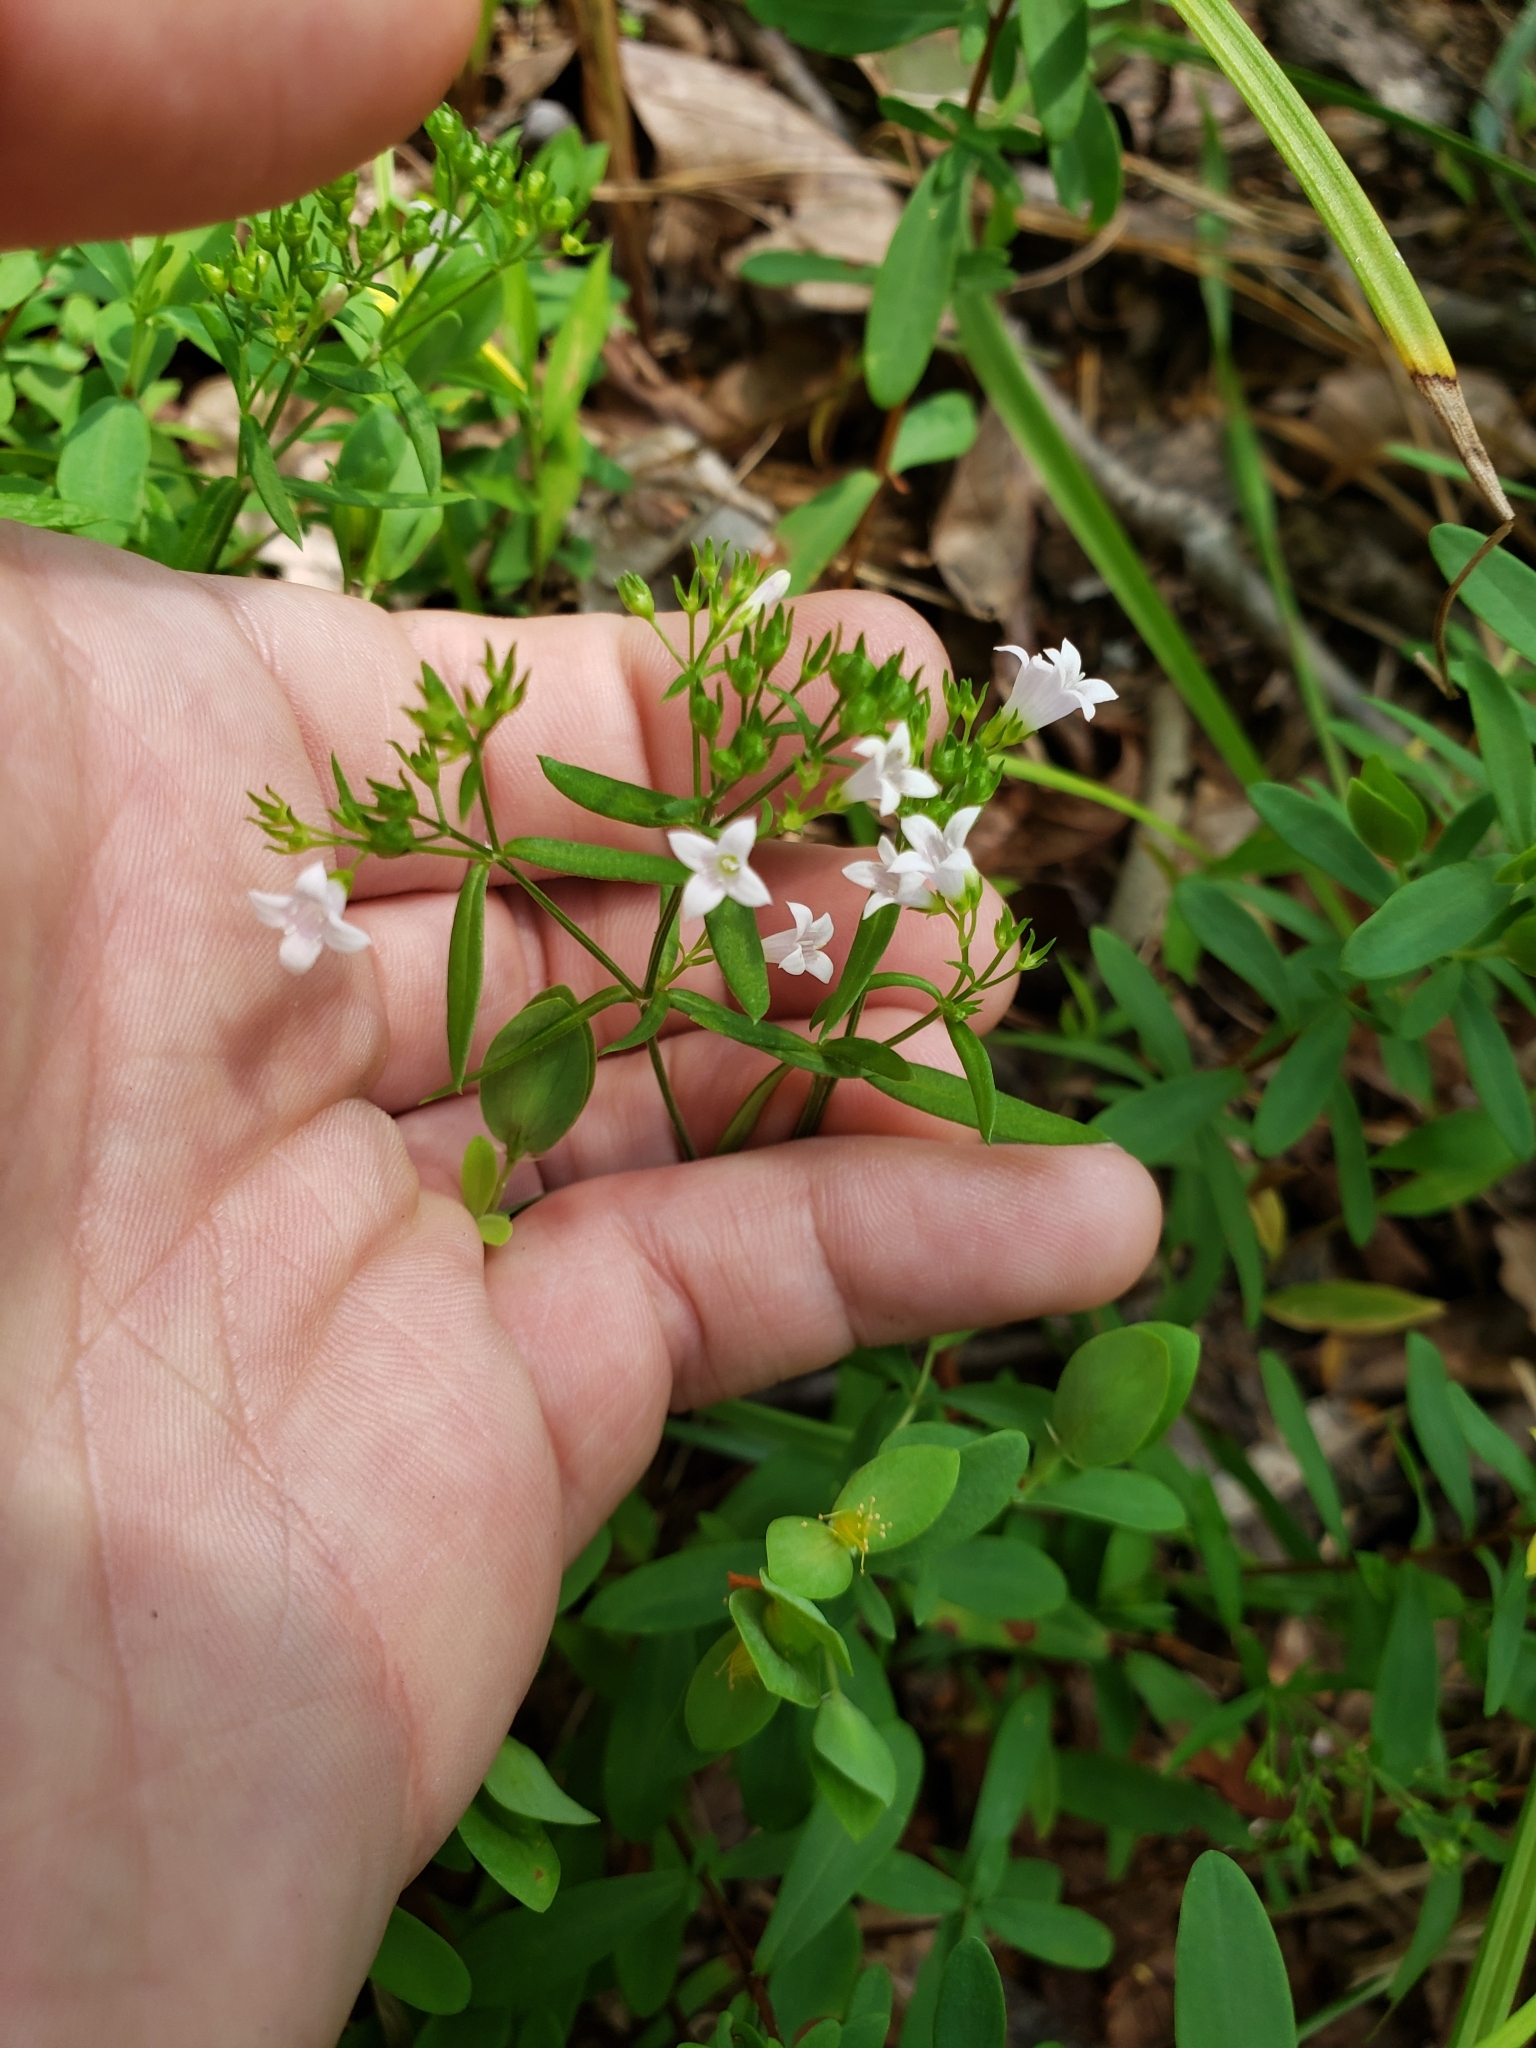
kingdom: Plantae
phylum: Tracheophyta
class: Magnoliopsida
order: Gentianales
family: Rubiaceae
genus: Houstonia
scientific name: Houstonia longifolia
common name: Long-leaved bluets
